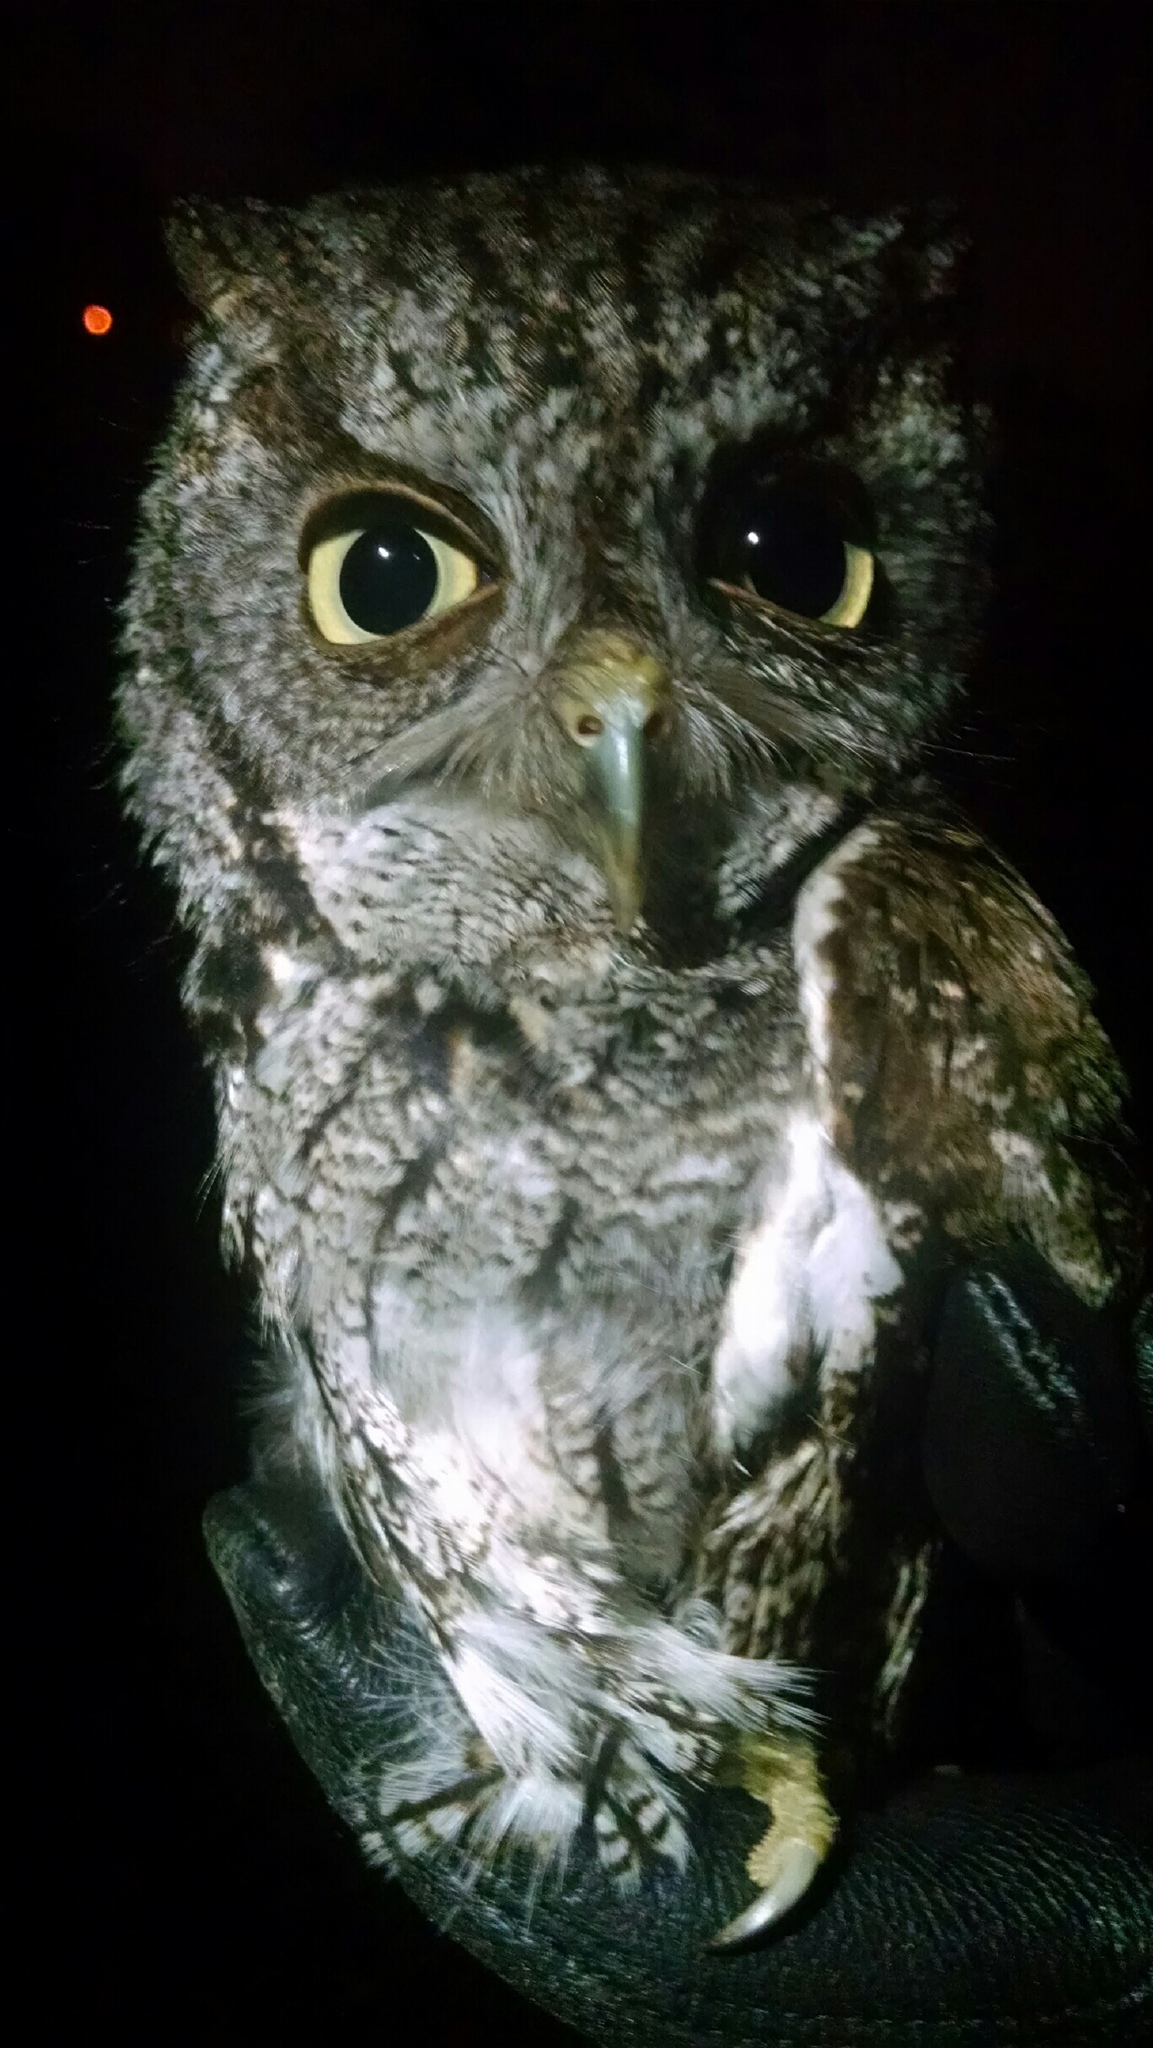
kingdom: Animalia
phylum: Chordata
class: Aves
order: Strigiformes
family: Strigidae
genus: Megascops
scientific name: Megascops asio
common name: Eastern screech-owl
